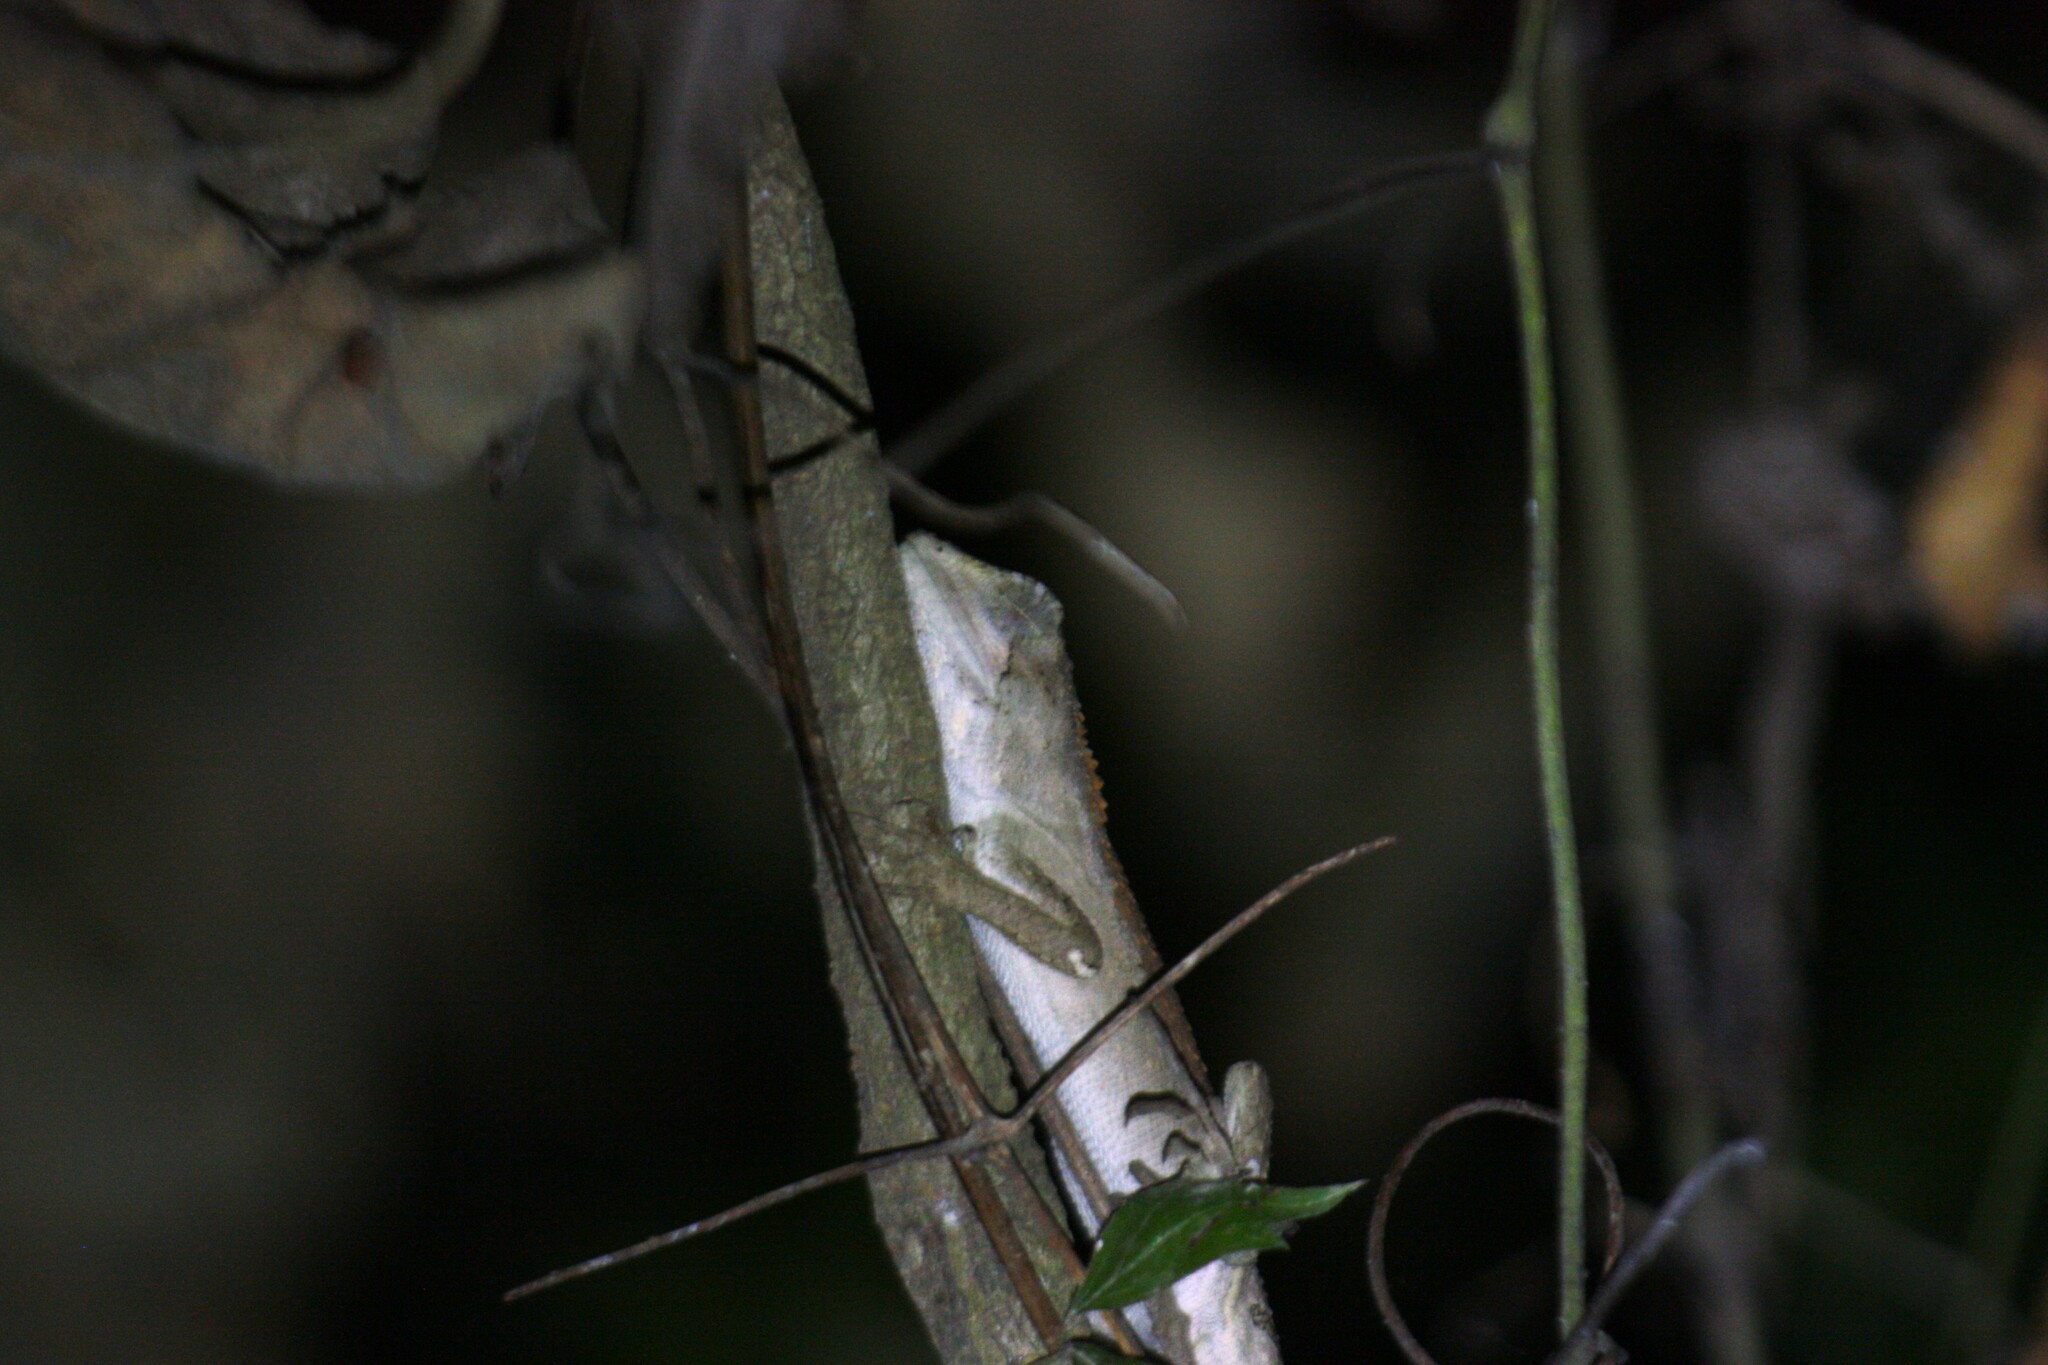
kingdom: Animalia
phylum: Chordata
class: Squamata
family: Agamidae
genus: Diploderma
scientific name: Diploderma swinhonis
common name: Taiwan japalure
